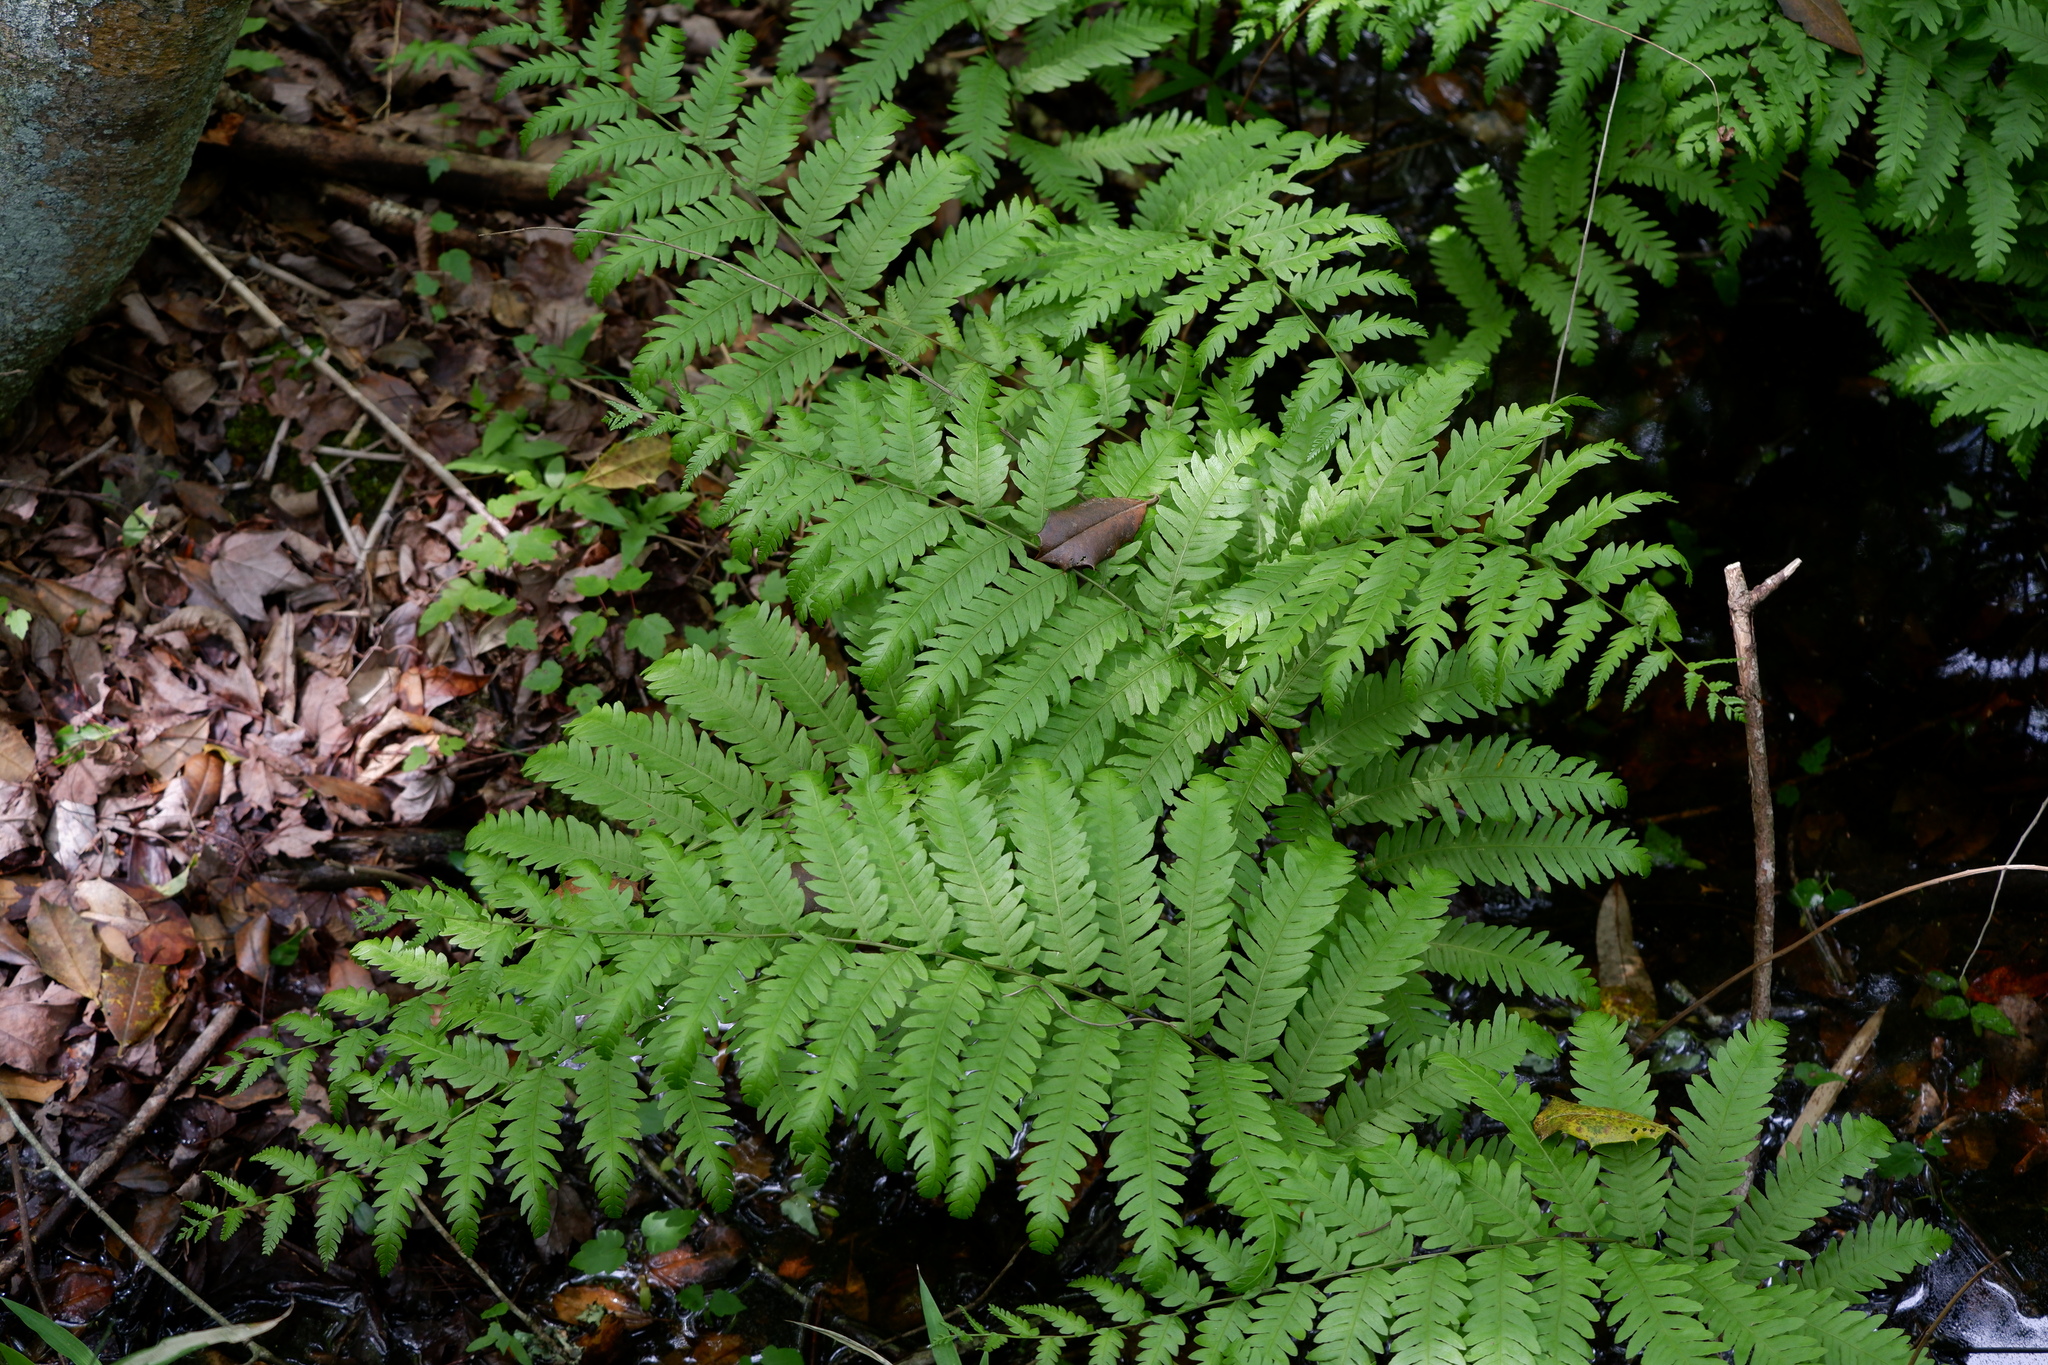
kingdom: Plantae
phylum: Tracheophyta
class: Polypodiopsida
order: Polypodiales
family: Blechnaceae
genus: Anchistea
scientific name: Anchistea virginica
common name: Virginia chain fern
